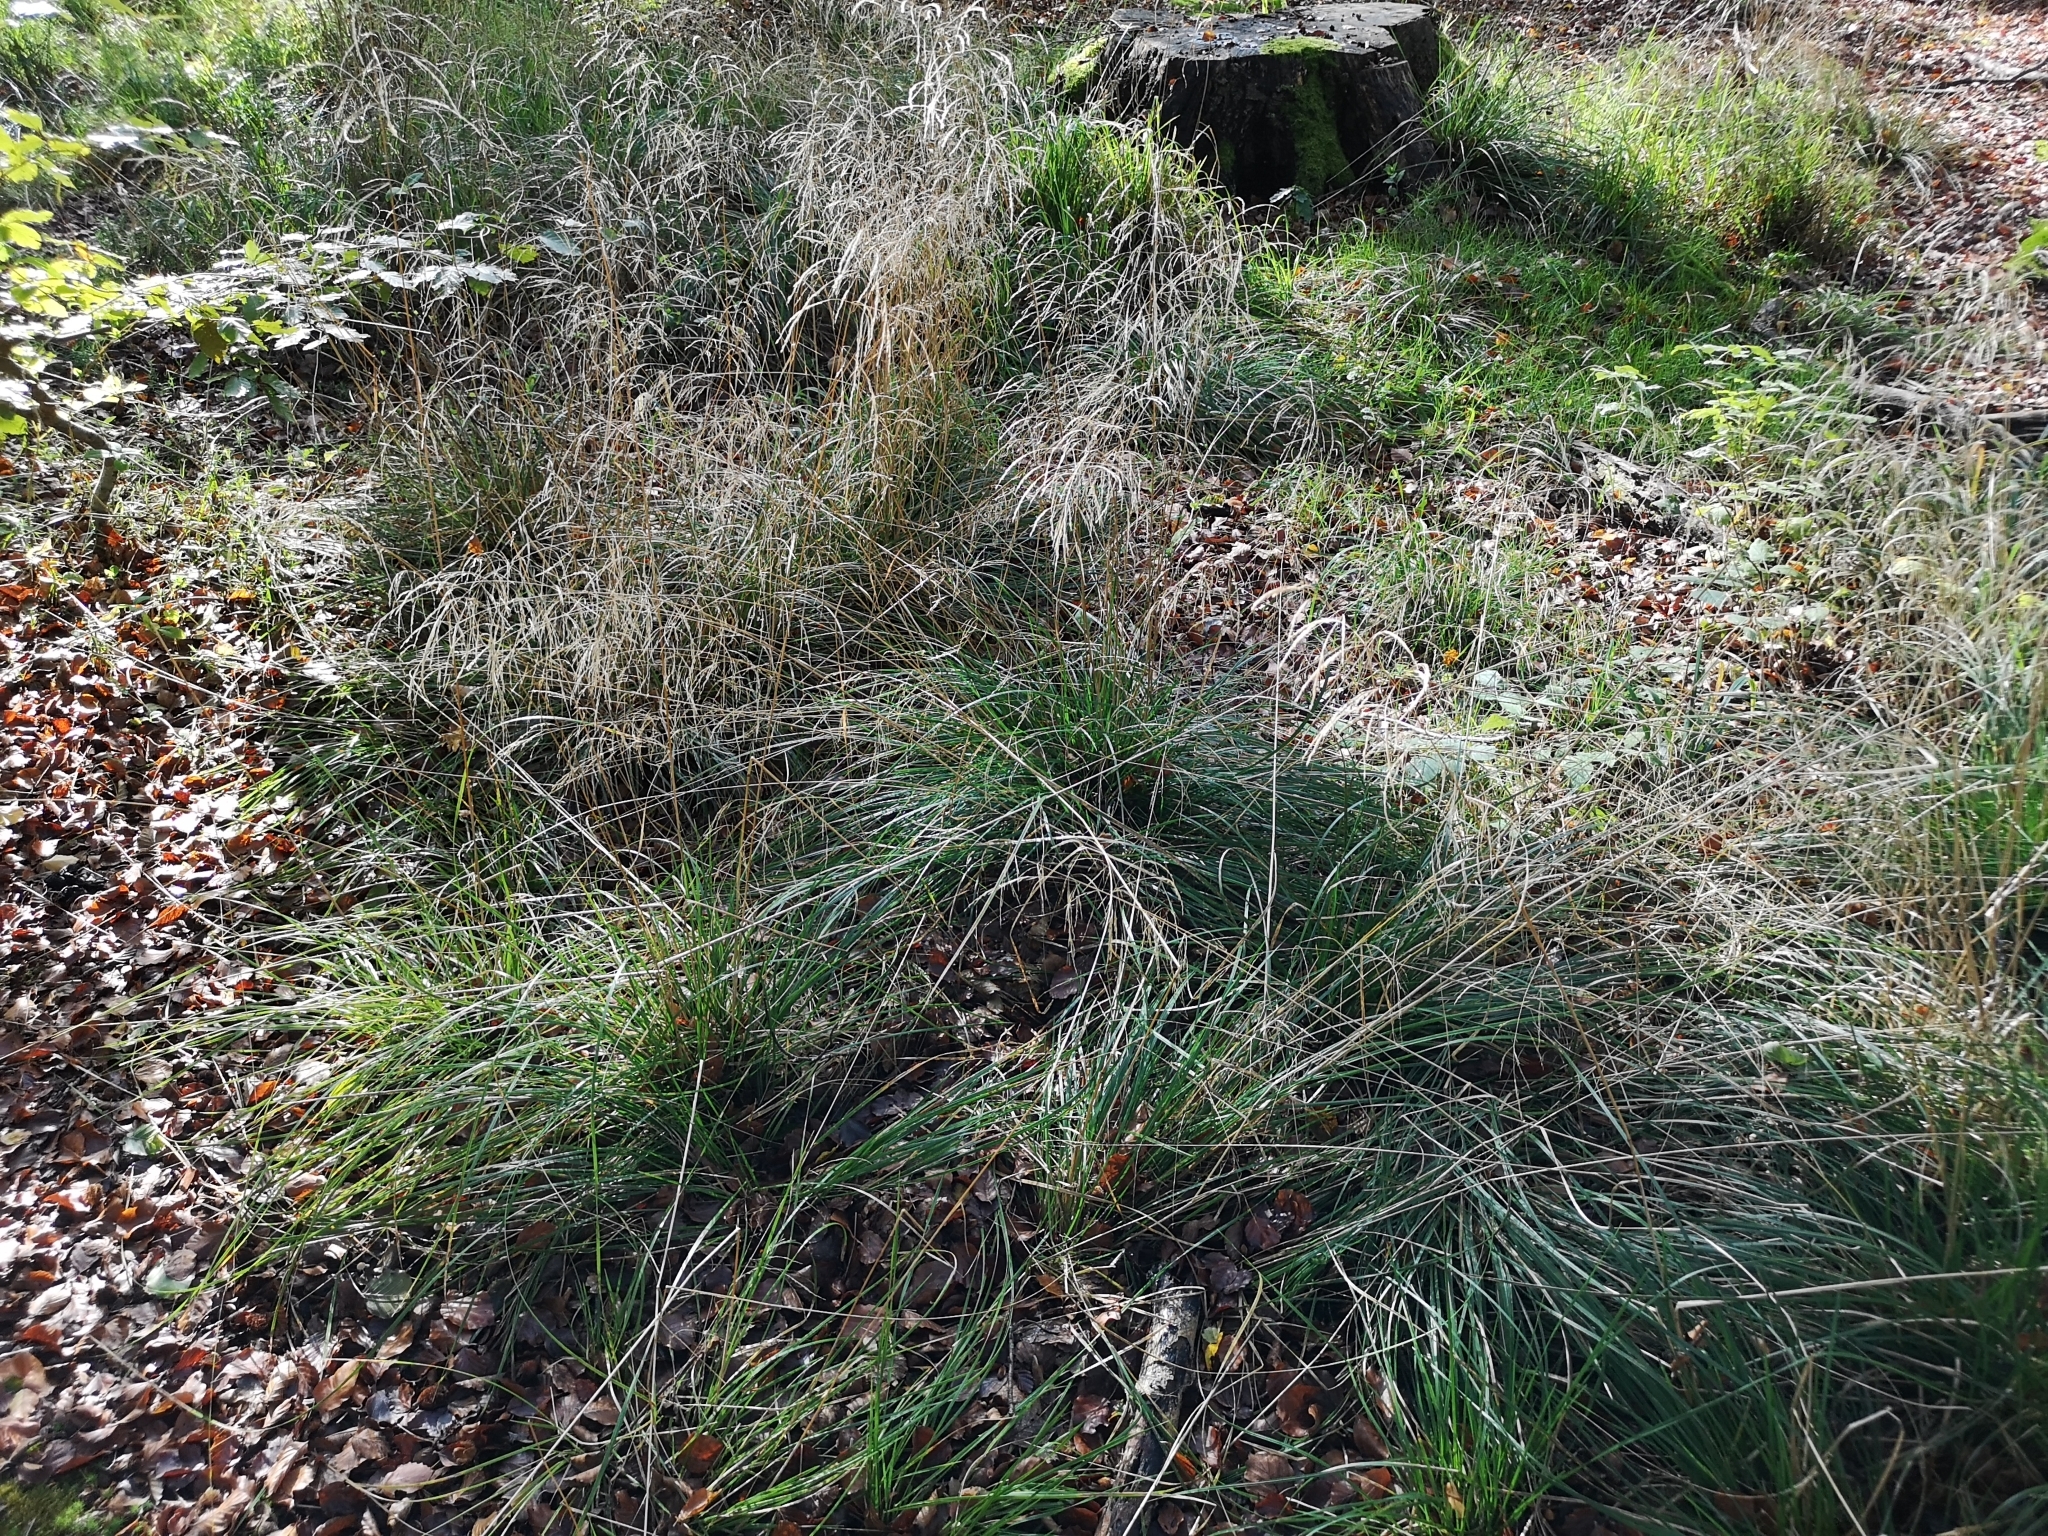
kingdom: Plantae
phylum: Tracheophyta
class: Liliopsida
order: Poales
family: Poaceae
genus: Deschampsia
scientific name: Deschampsia cespitosa
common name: Tufted hair-grass
